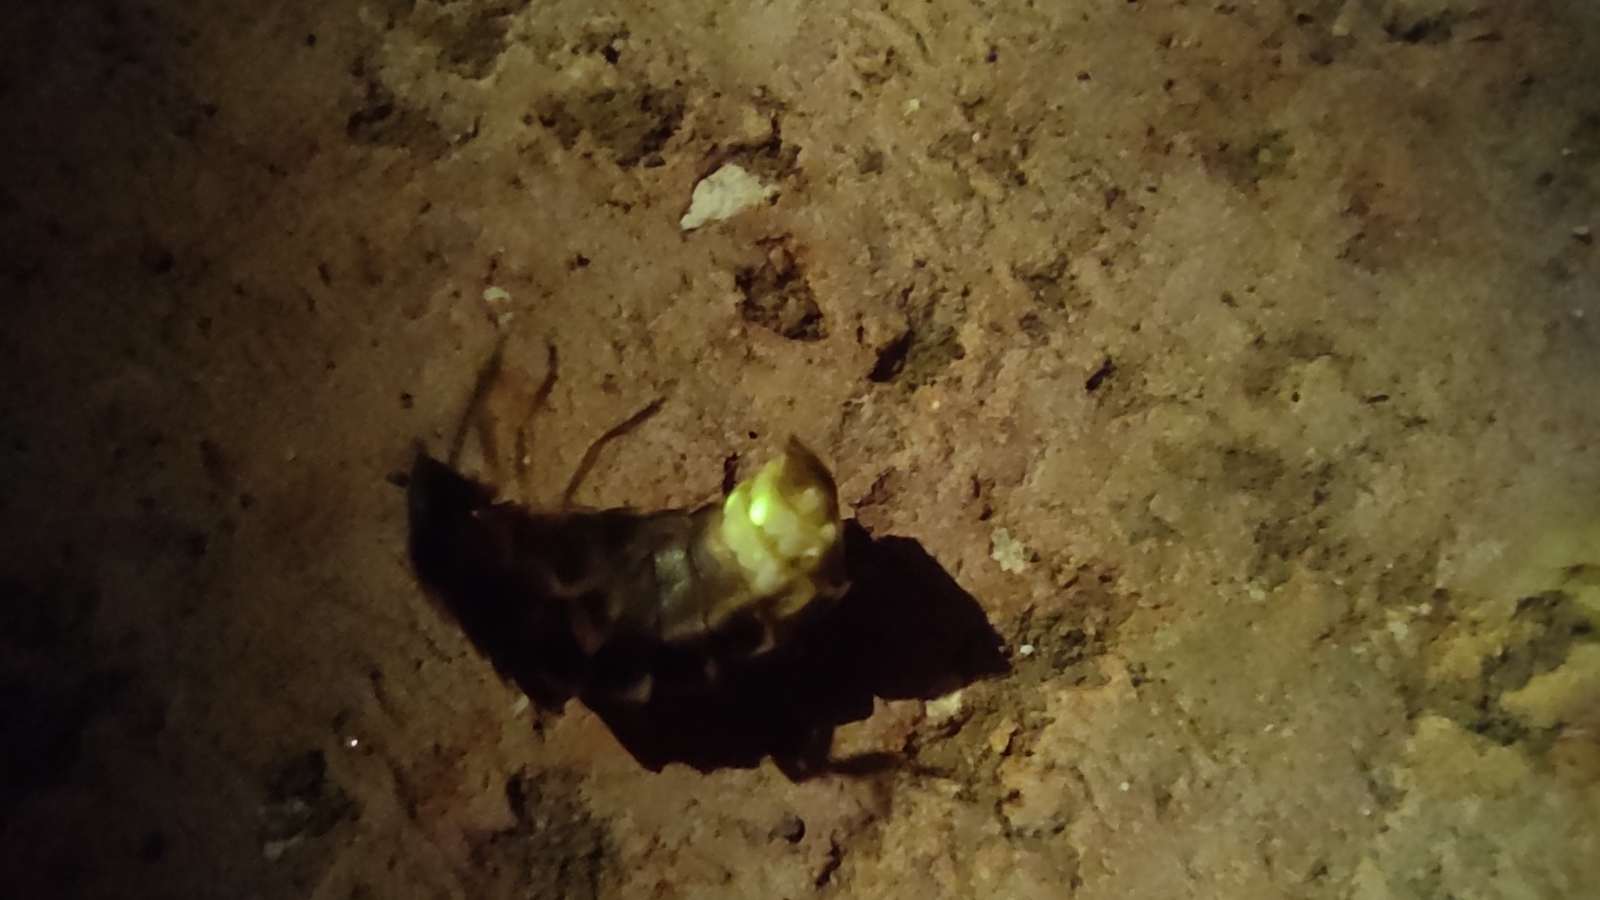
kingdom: Animalia
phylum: Arthropoda
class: Insecta
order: Coleoptera
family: Lampyridae
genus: Lampyris
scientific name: Lampyris noctiluca
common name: Glow-worm
